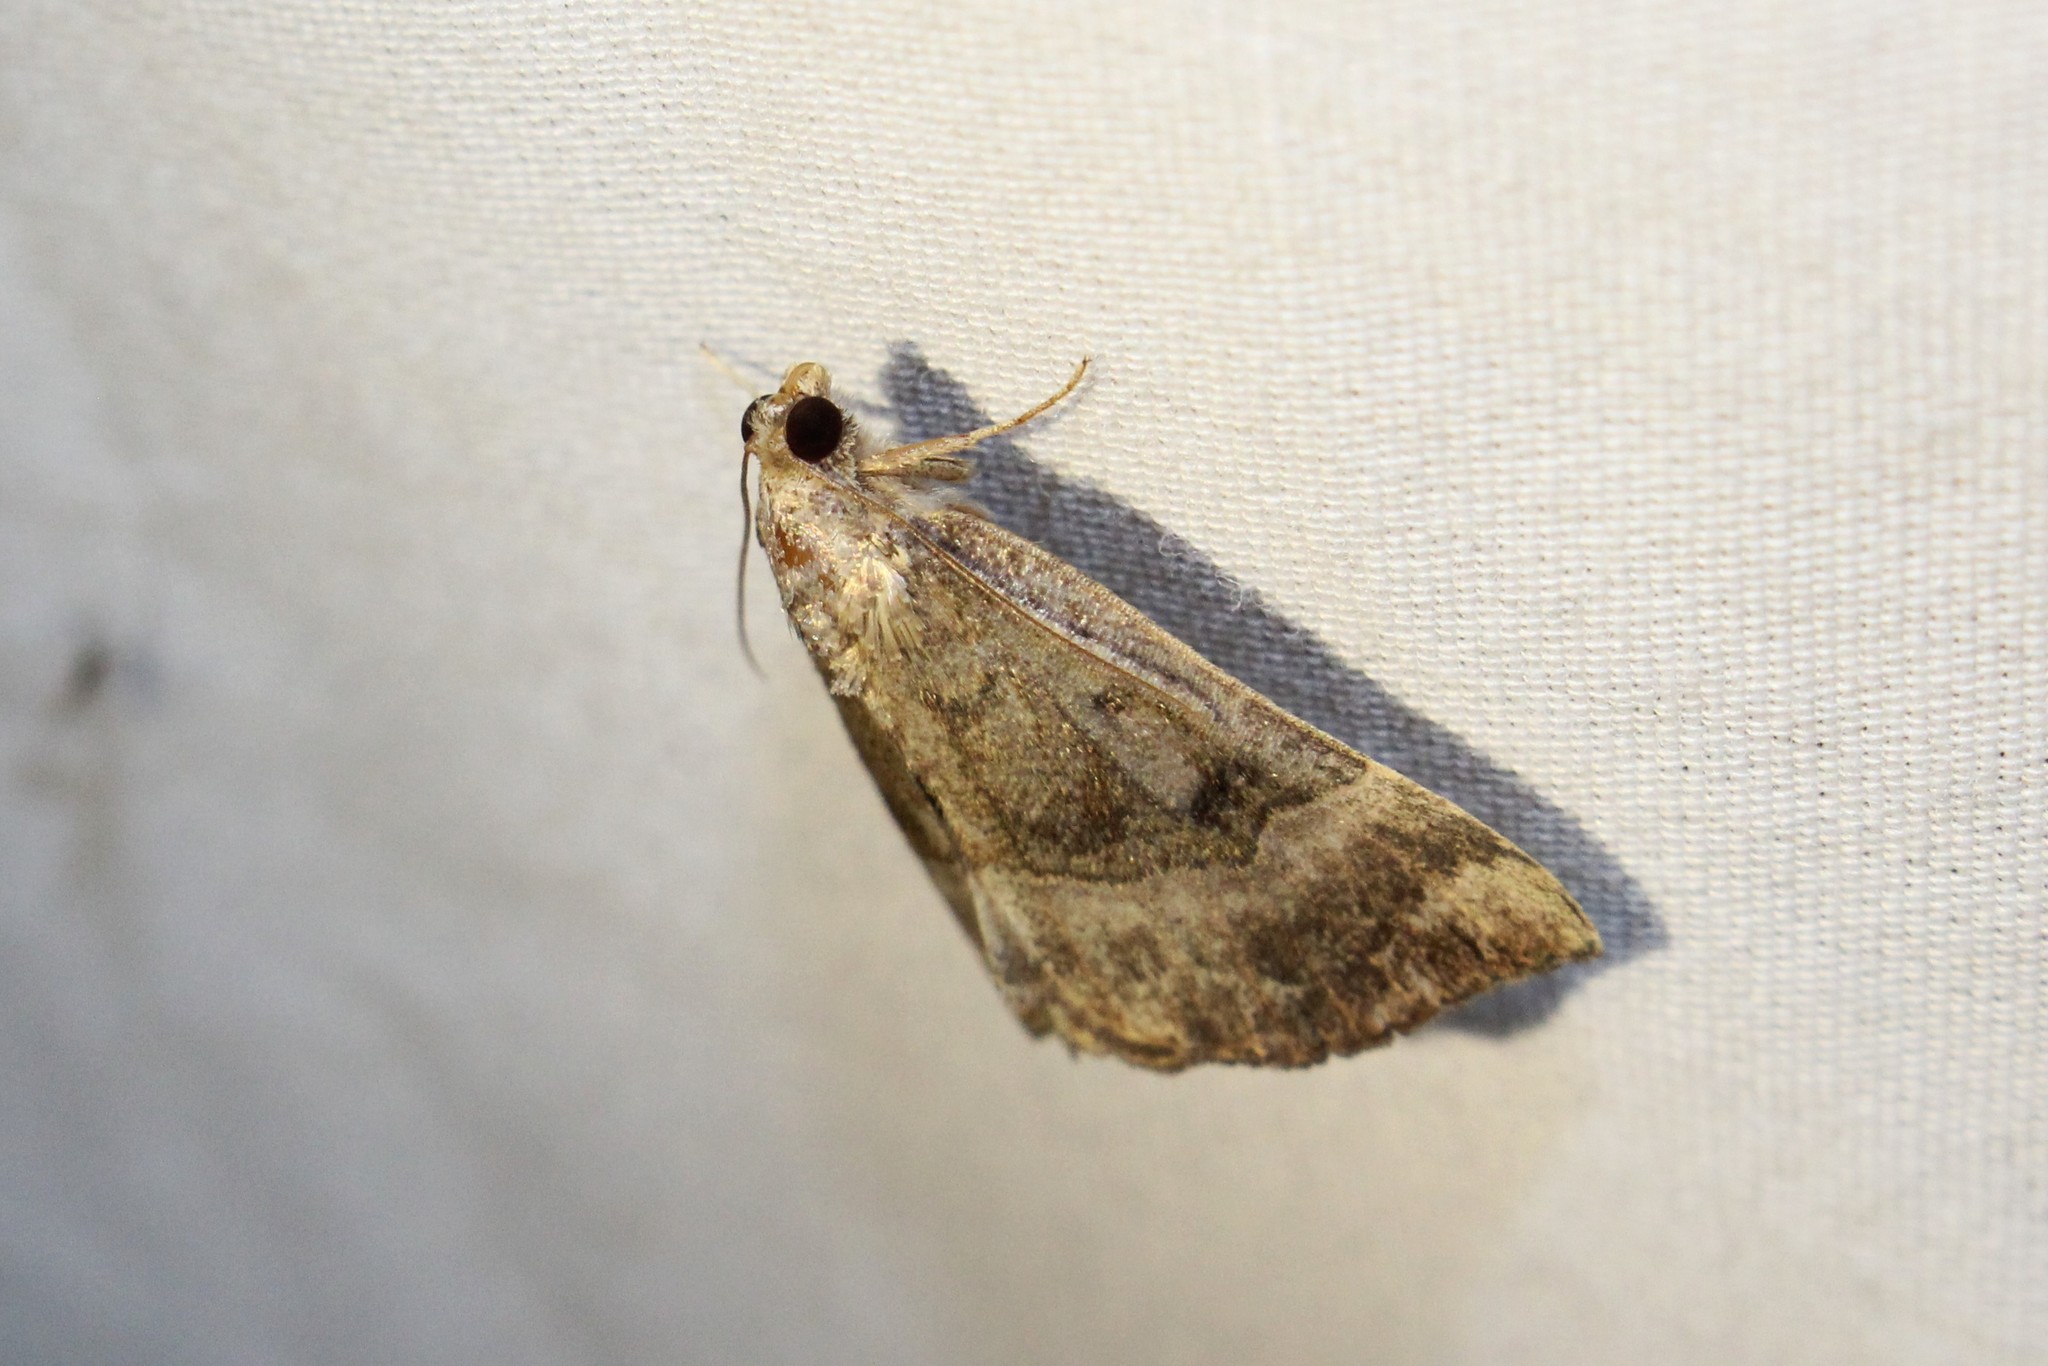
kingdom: Animalia
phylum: Arthropoda
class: Insecta
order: Lepidoptera
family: Erebidae
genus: Hypena
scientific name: Hypena madefactalis
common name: Gray-edged snout
